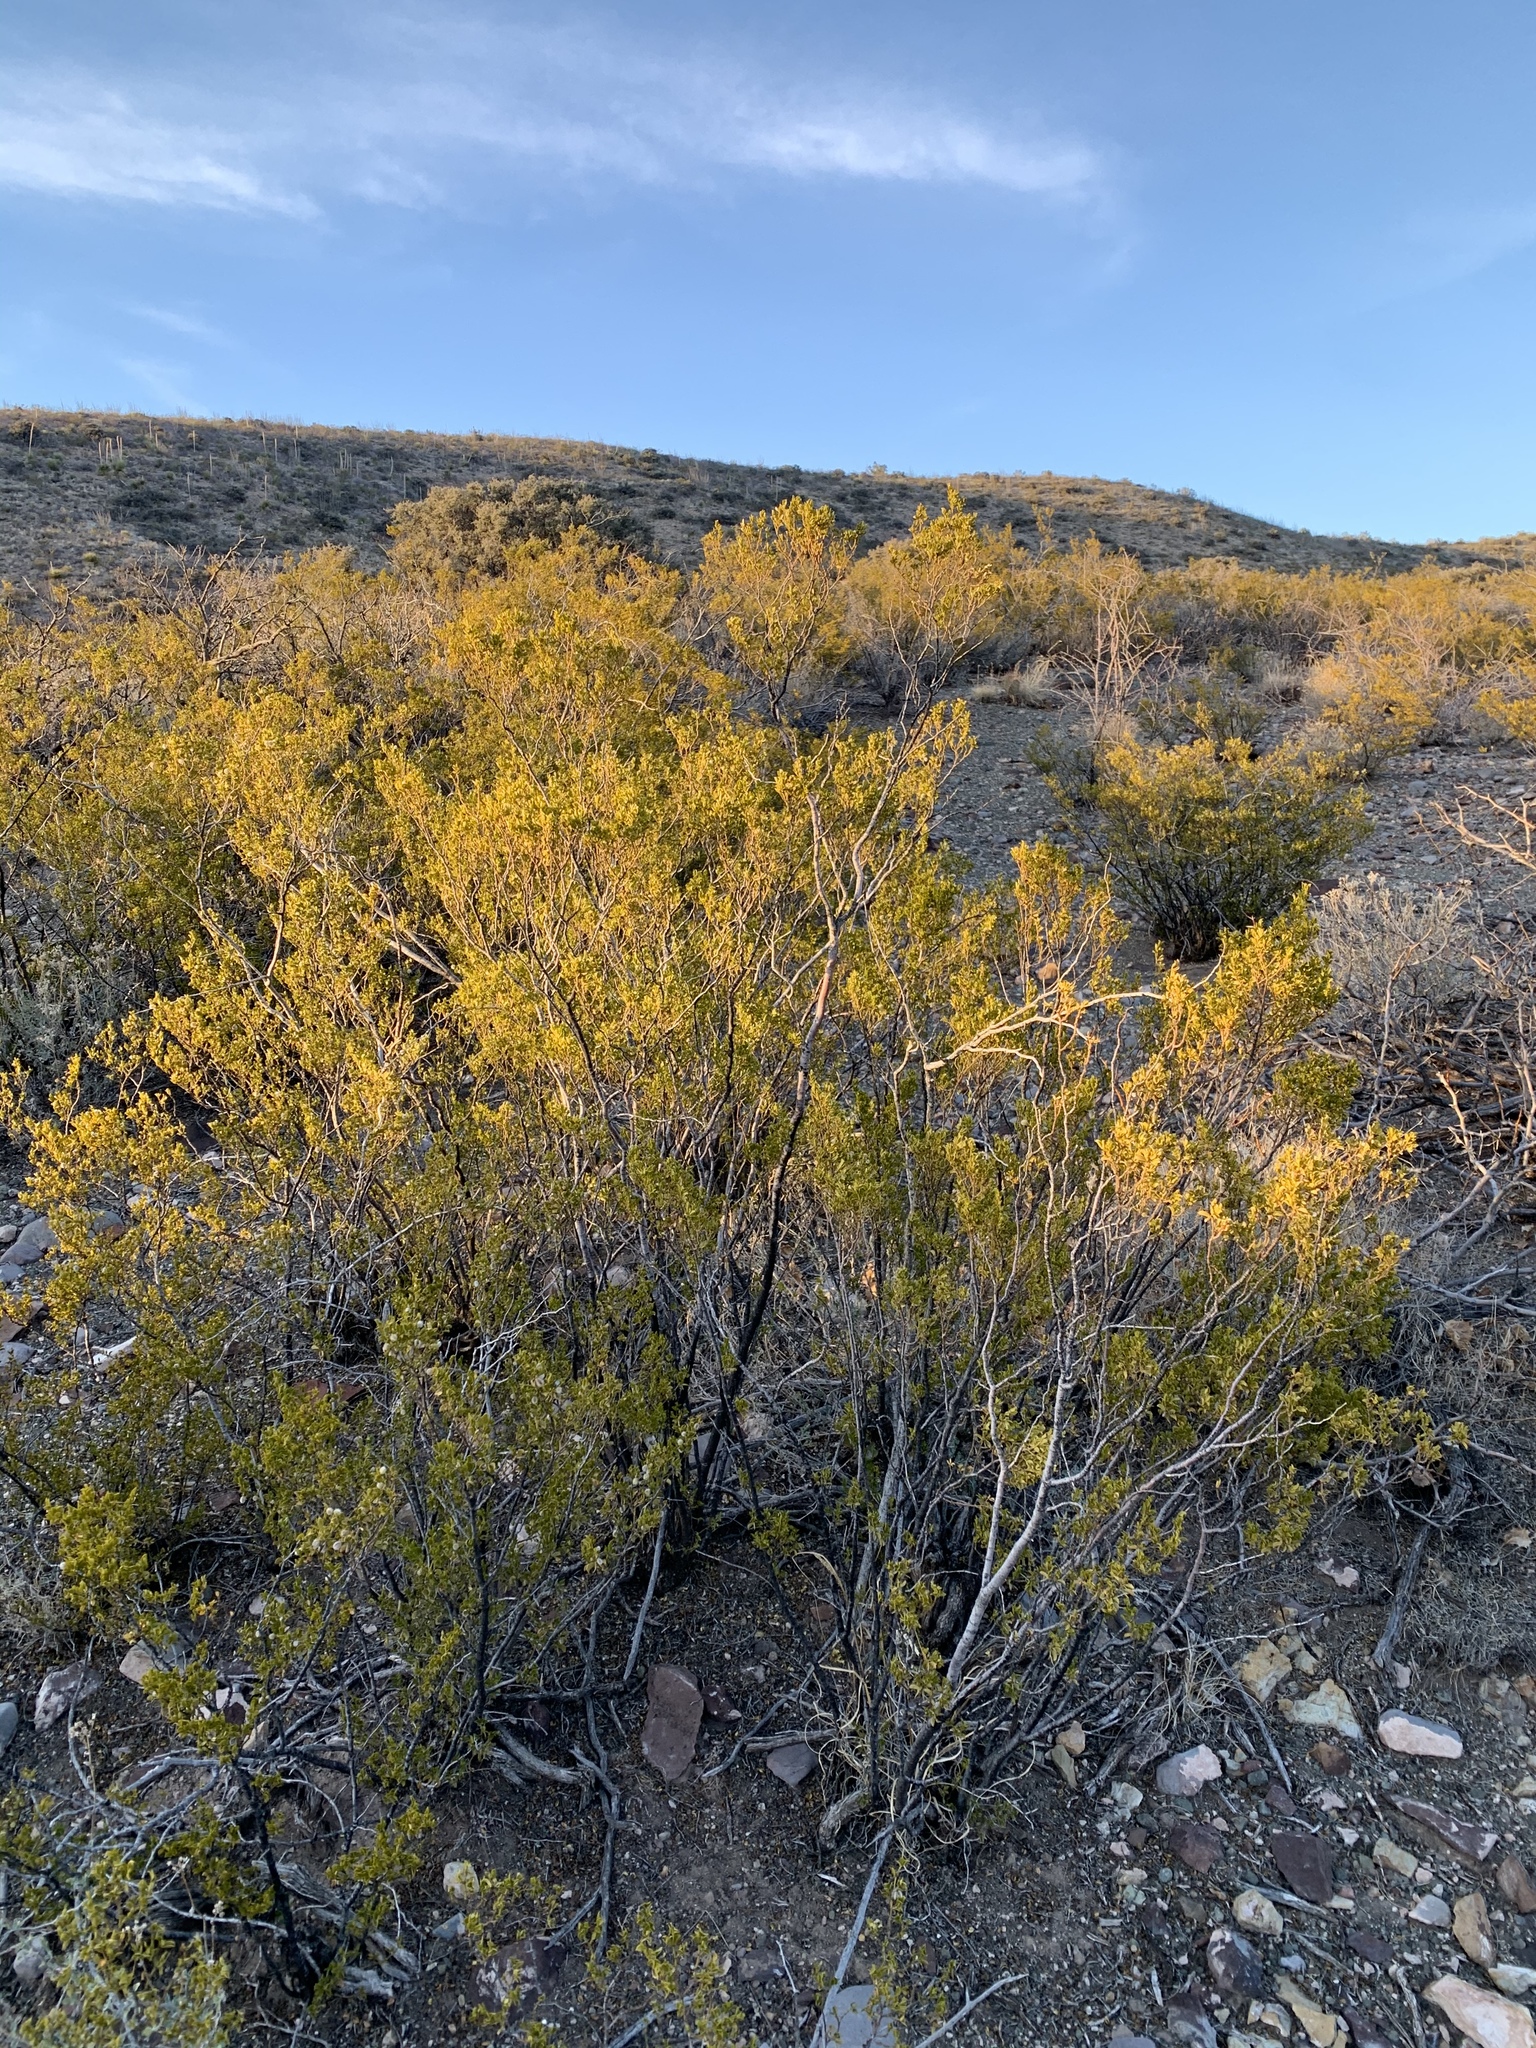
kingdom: Plantae
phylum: Tracheophyta
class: Magnoliopsida
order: Zygophyllales
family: Zygophyllaceae
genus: Larrea
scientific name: Larrea tridentata
